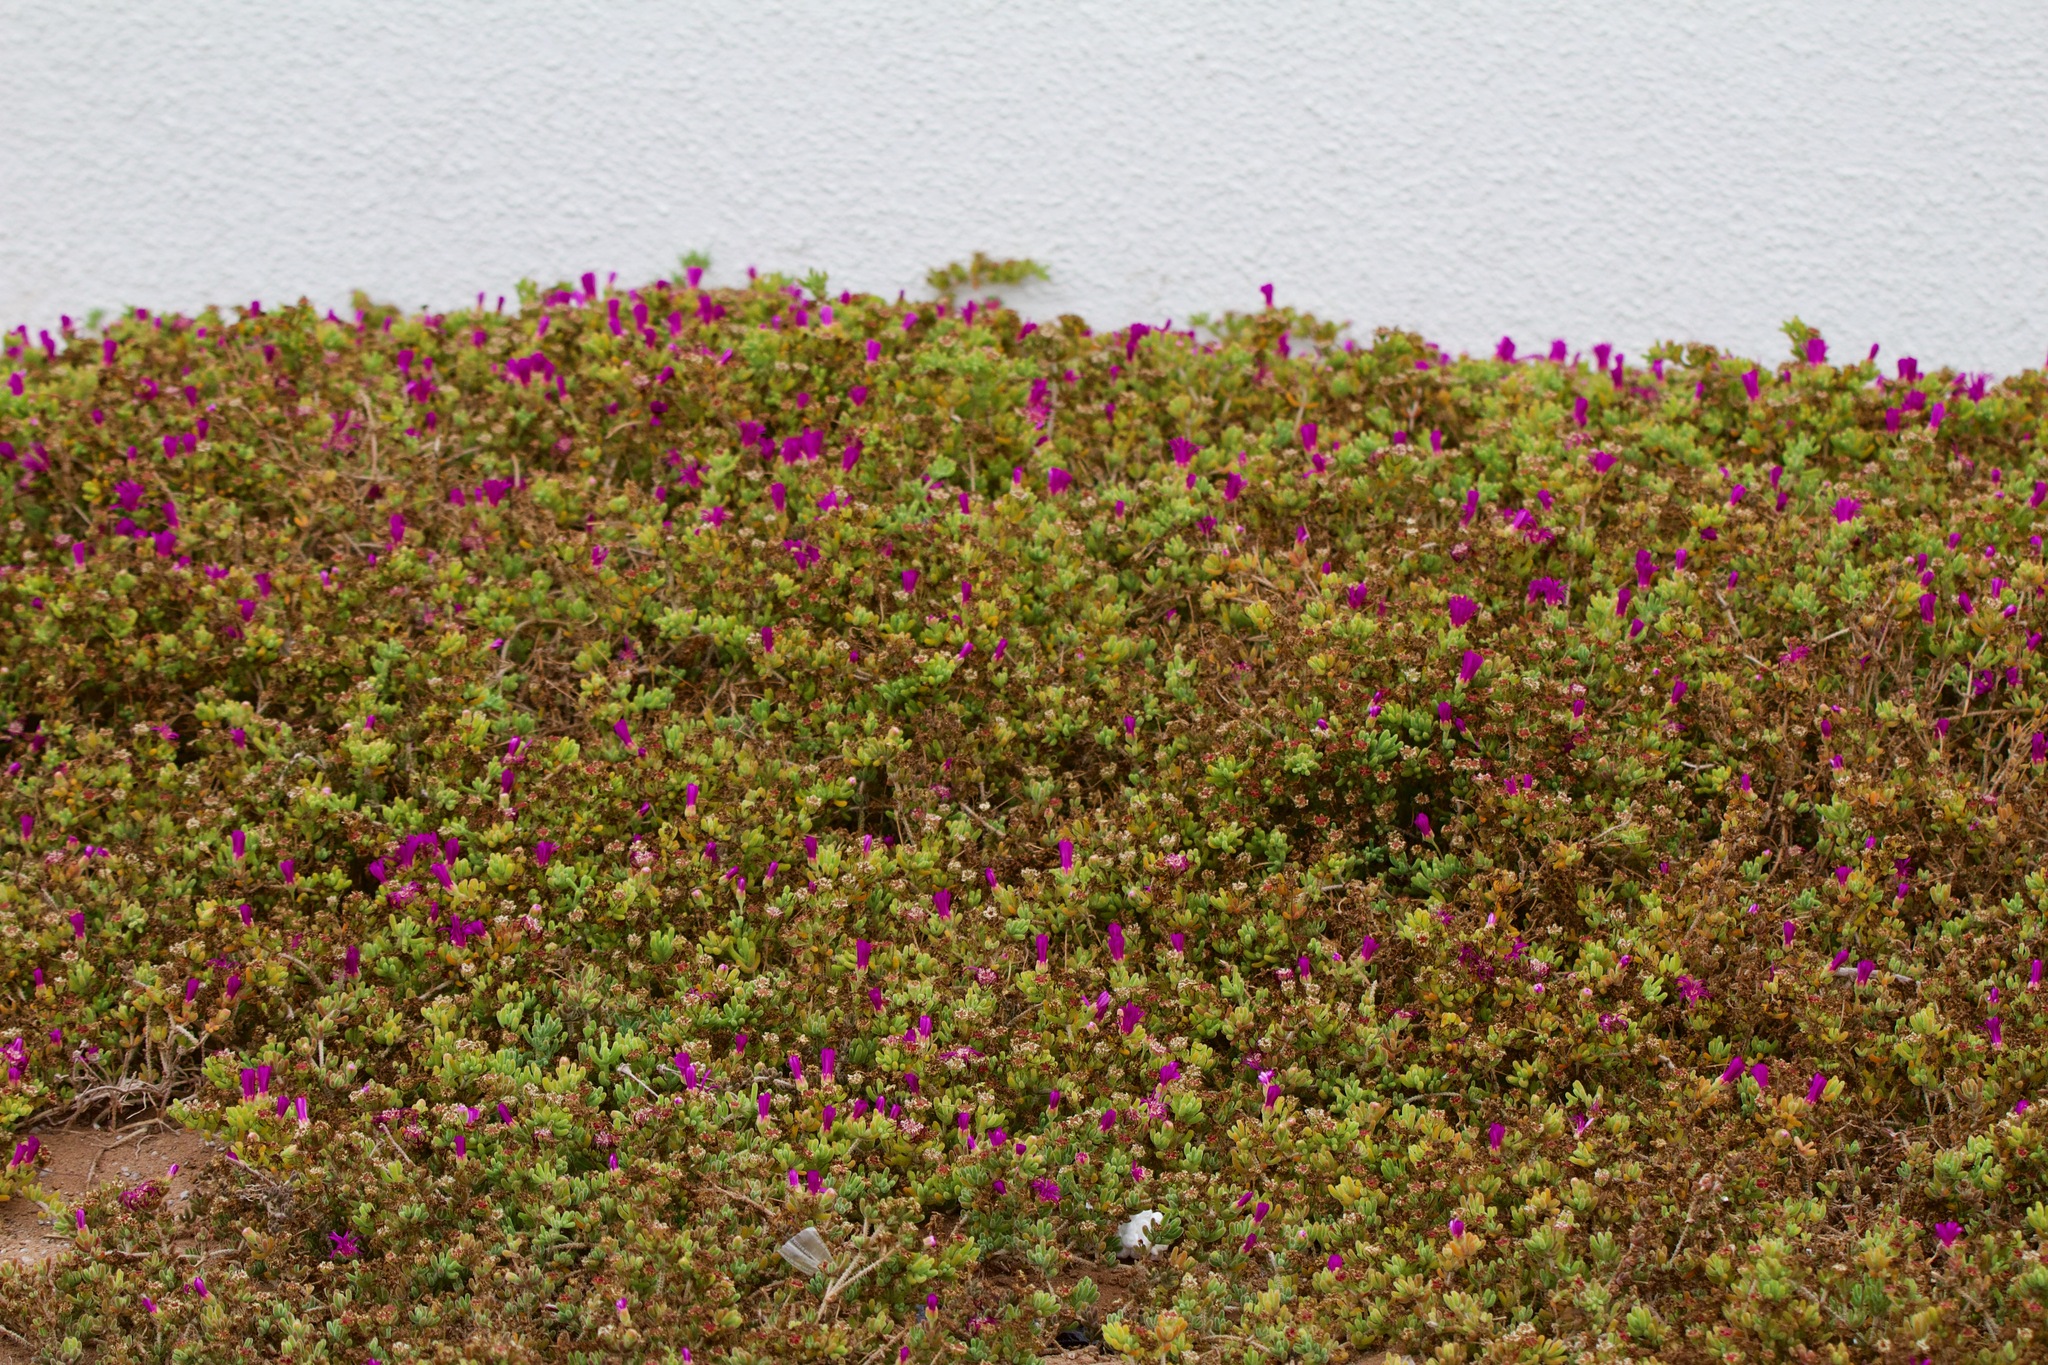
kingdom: Plantae
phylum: Tracheophyta
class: Magnoliopsida
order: Caryophyllales
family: Aizoaceae
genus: Carpobrotus
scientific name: Carpobrotus chilensis
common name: Sea fig
